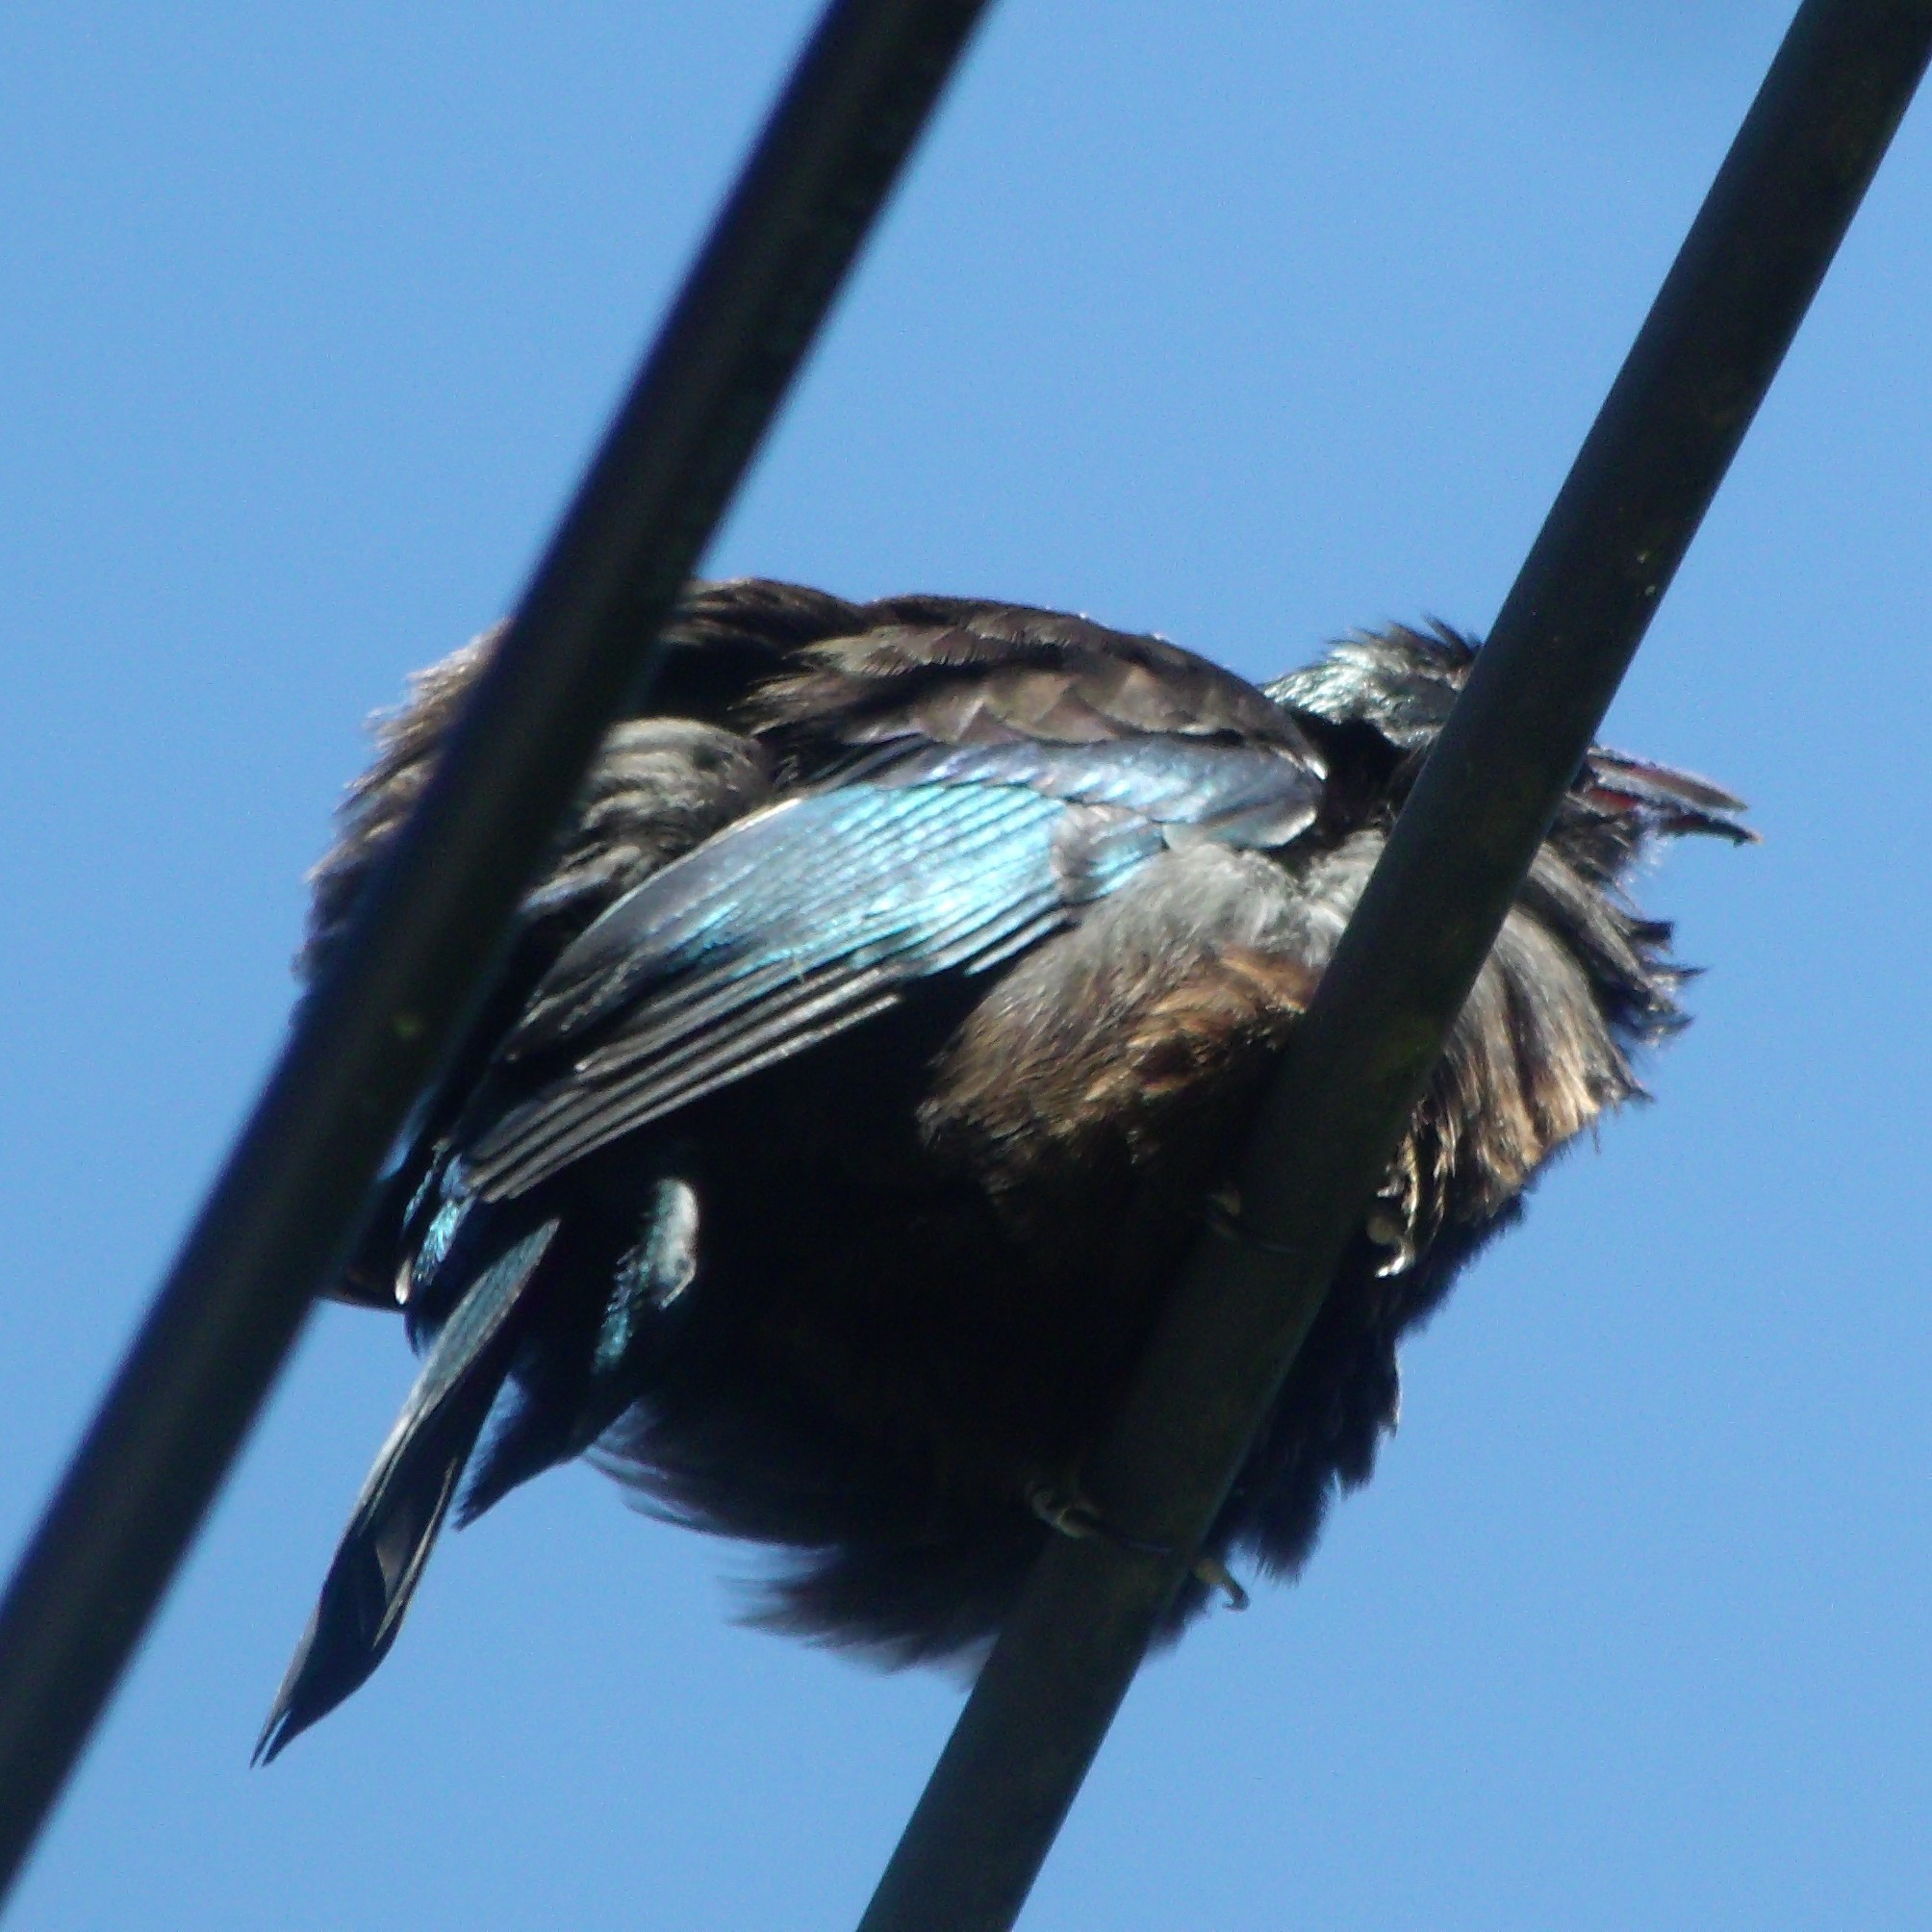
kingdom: Animalia
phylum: Chordata
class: Aves
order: Passeriformes
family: Meliphagidae
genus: Prosthemadera
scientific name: Prosthemadera novaeseelandiae
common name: Tui
